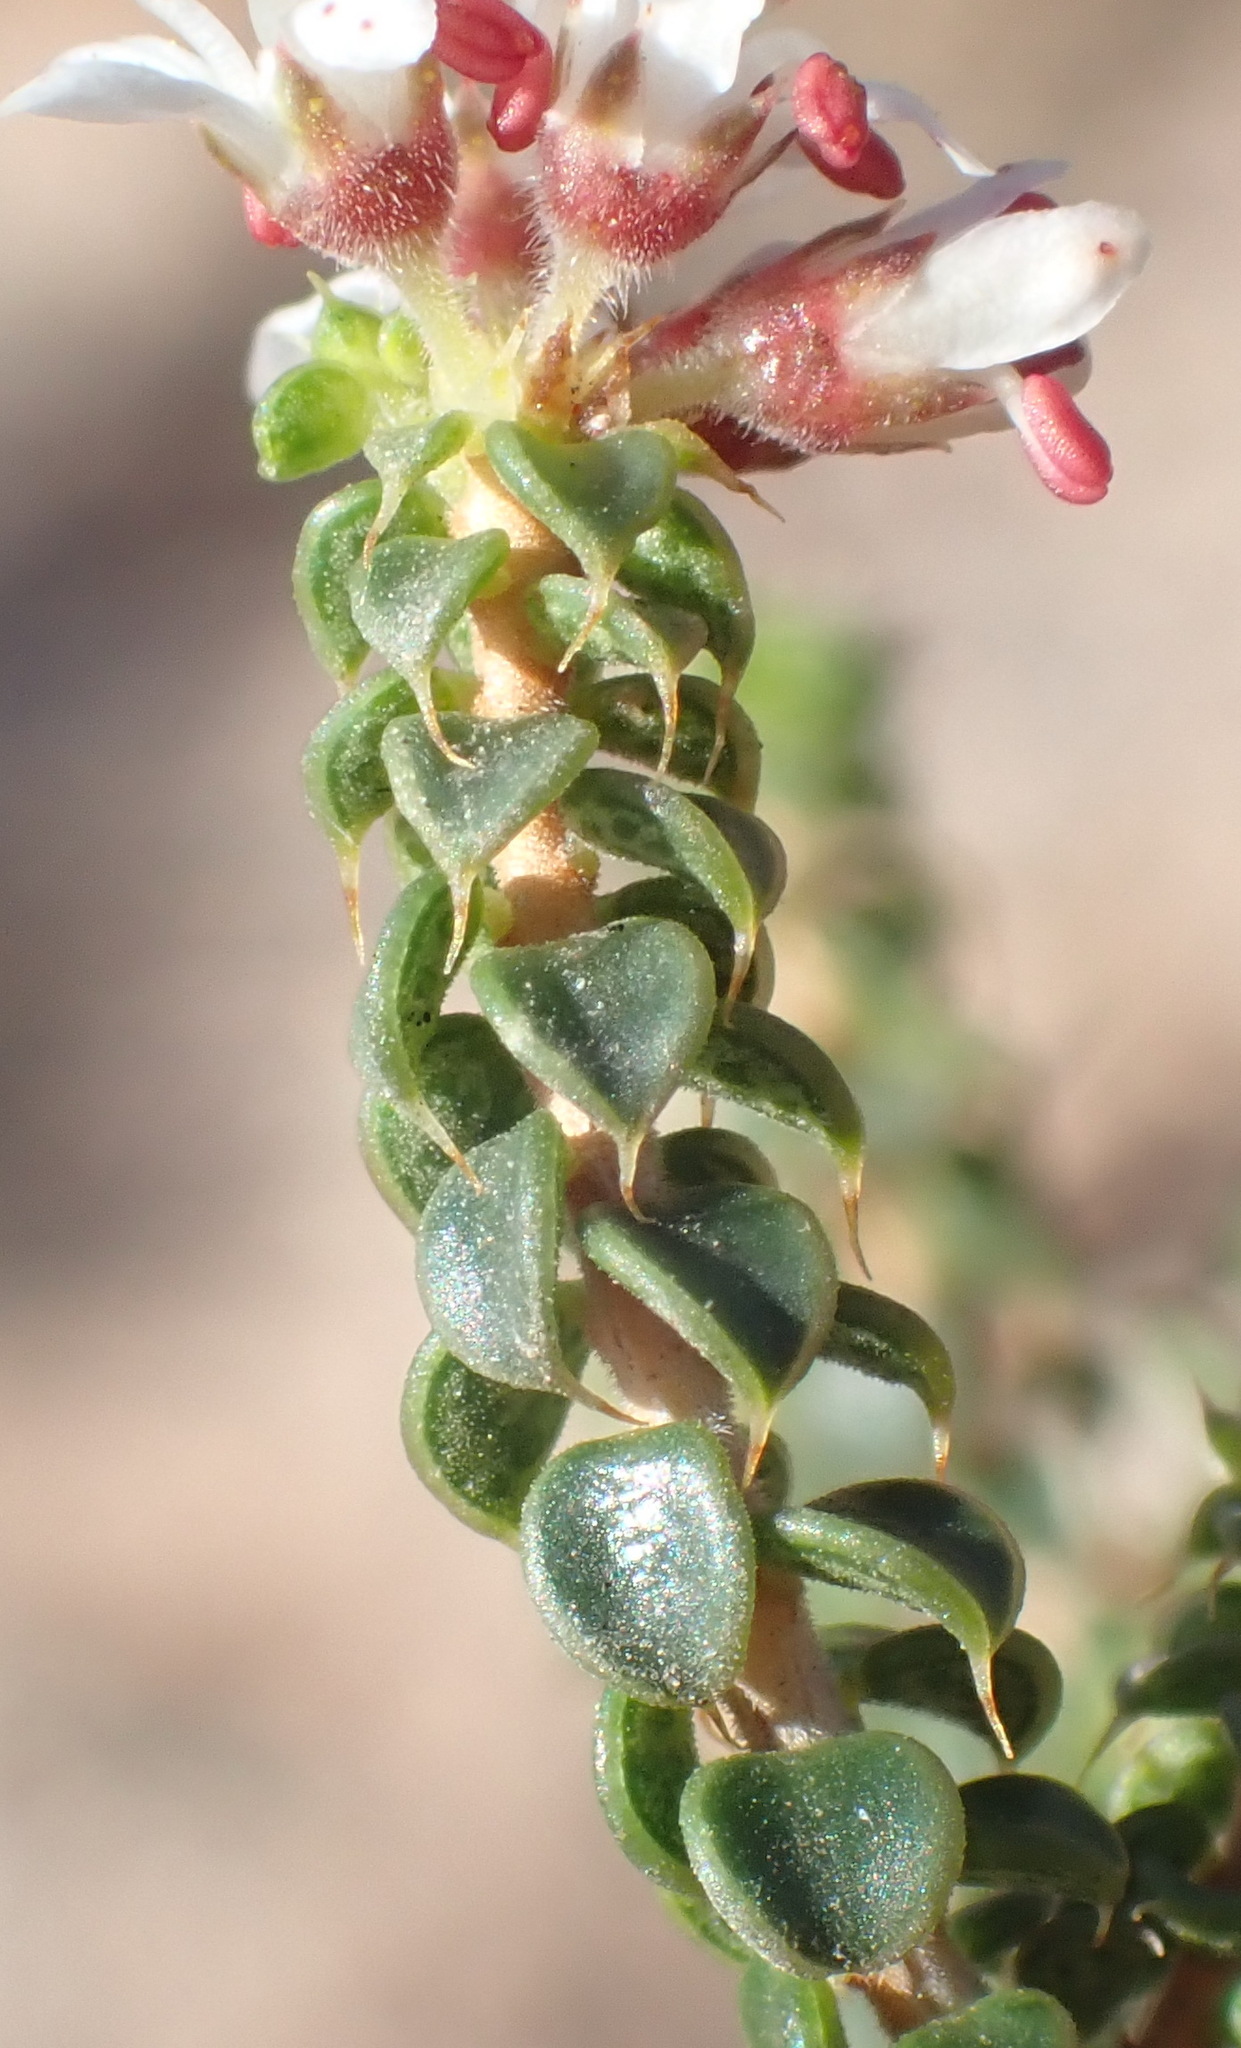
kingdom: Plantae
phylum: Tracheophyta
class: Magnoliopsida
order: Sapindales
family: Rutaceae
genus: Agathosma
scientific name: Agathosma recurvifolia
